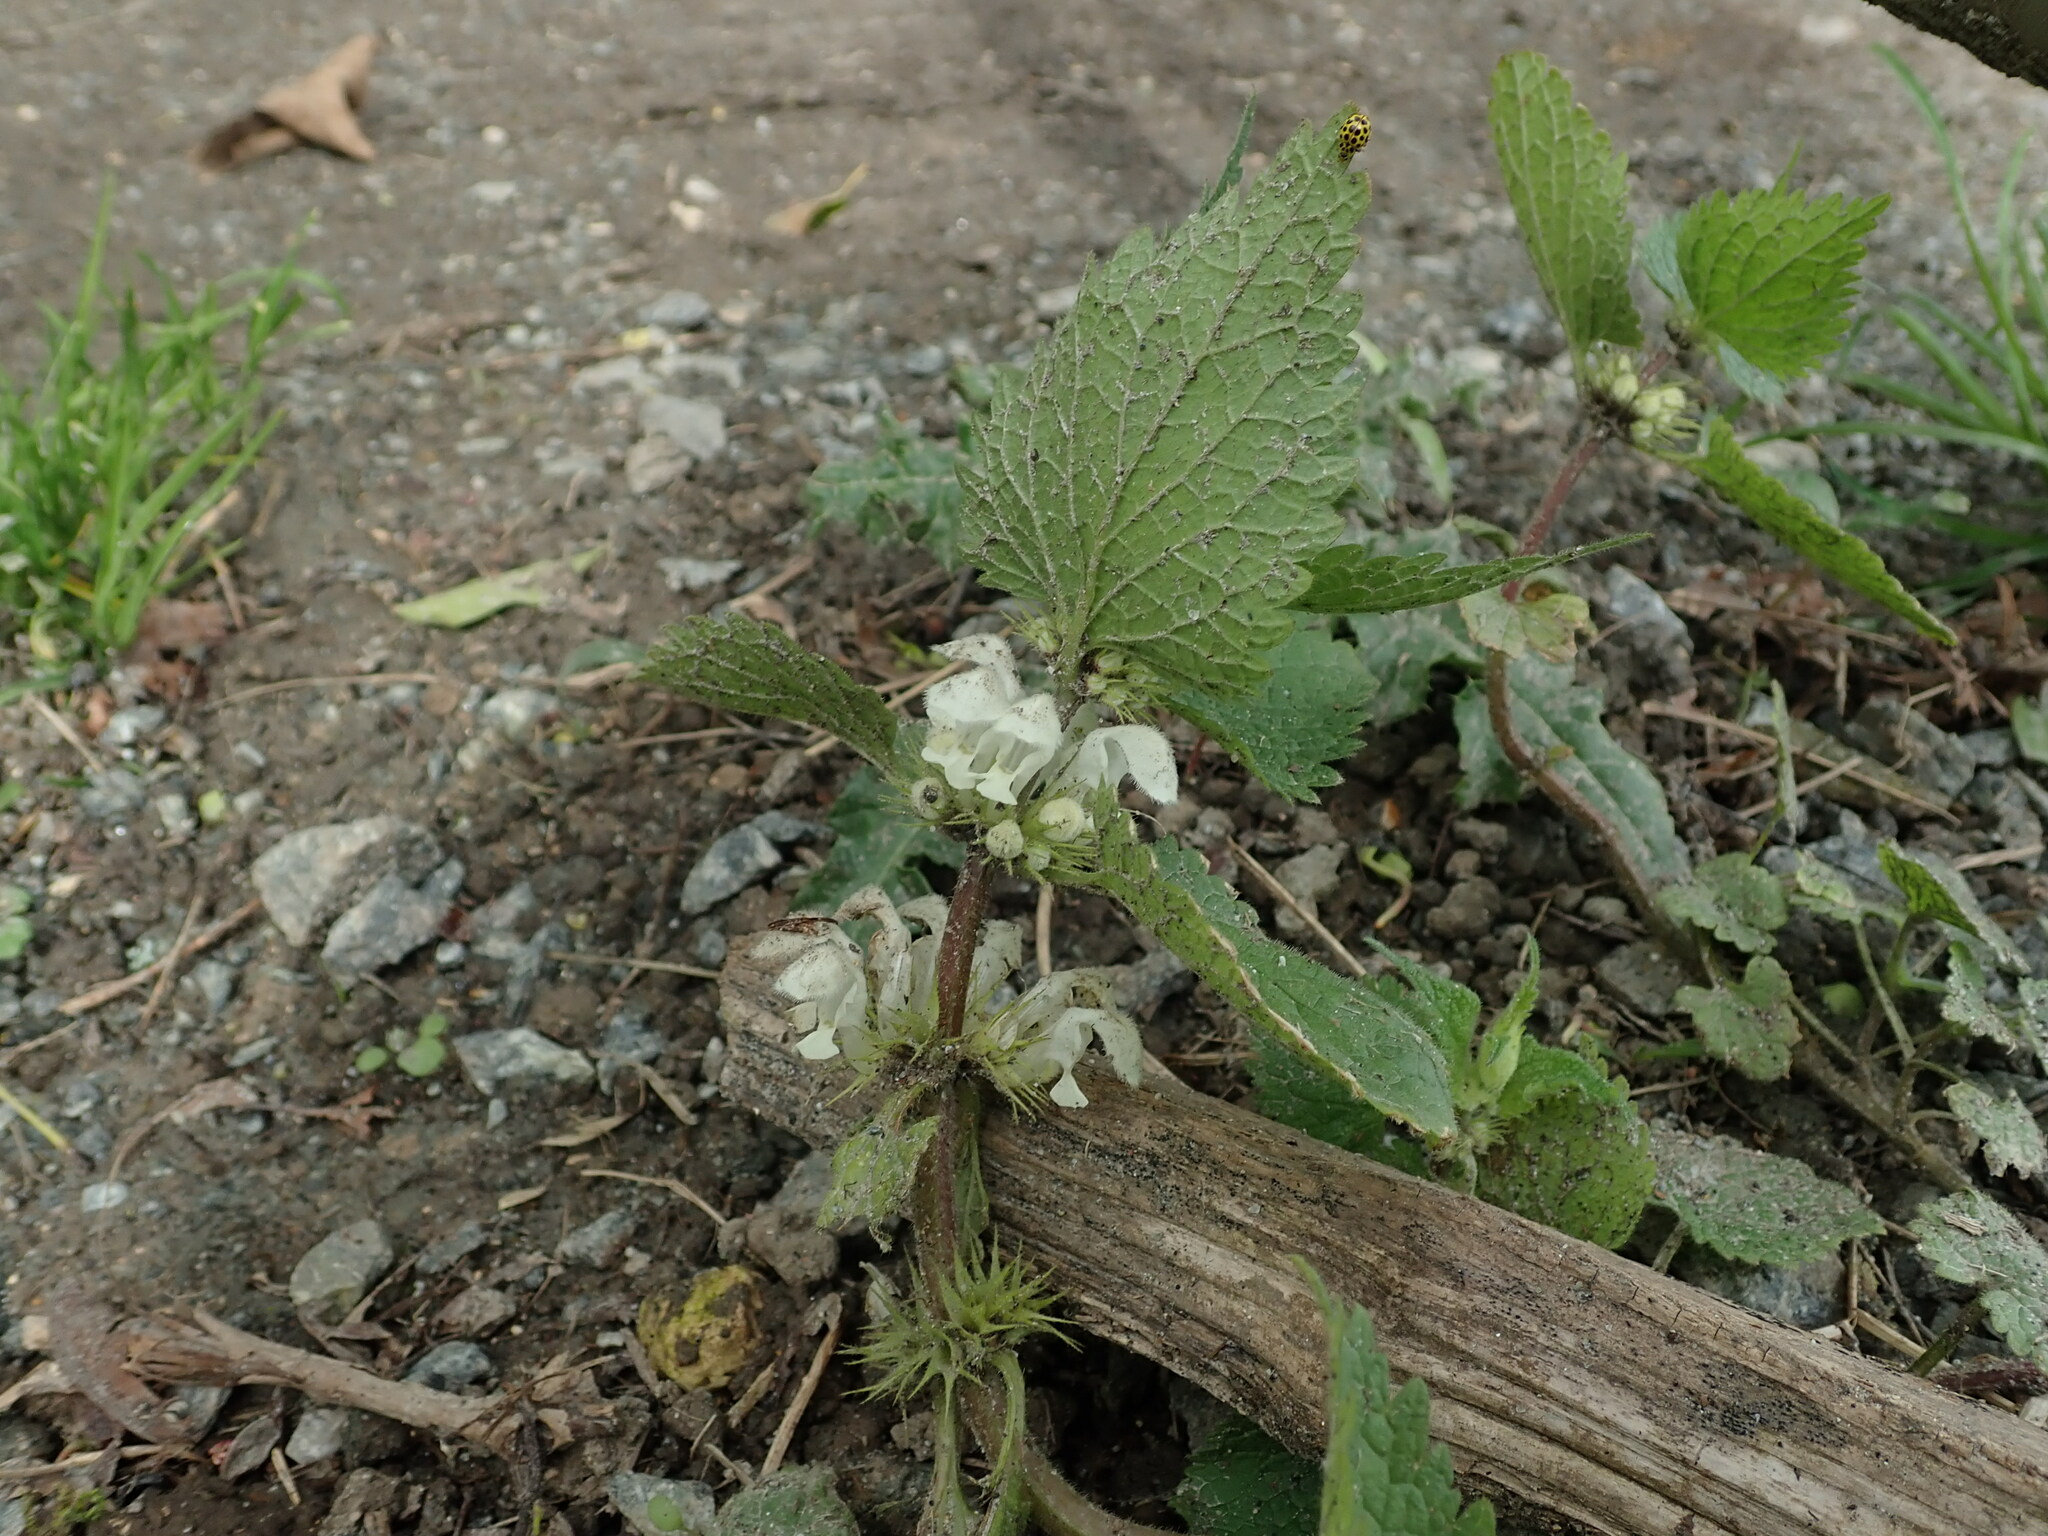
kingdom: Plantae
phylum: Tracheophyta
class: Magnoliopsida
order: Lamiales
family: Lamiaceae
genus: Lamium
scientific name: Lamium album
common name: White dead-nettle
